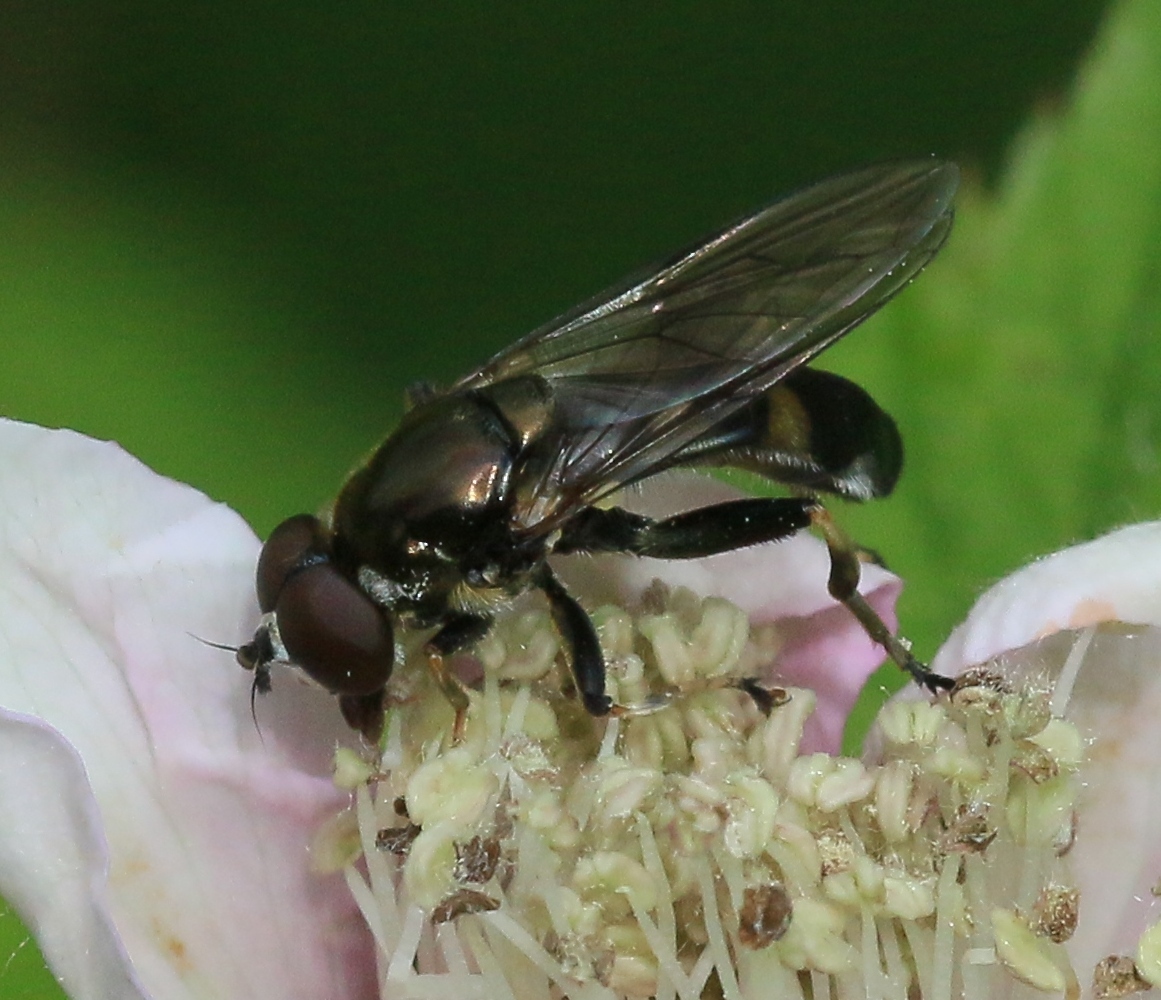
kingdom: Animalia
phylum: Arthropoda
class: Insecta
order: Diptera
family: Syrphidae
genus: Xylota
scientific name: Xylota jakutorum
